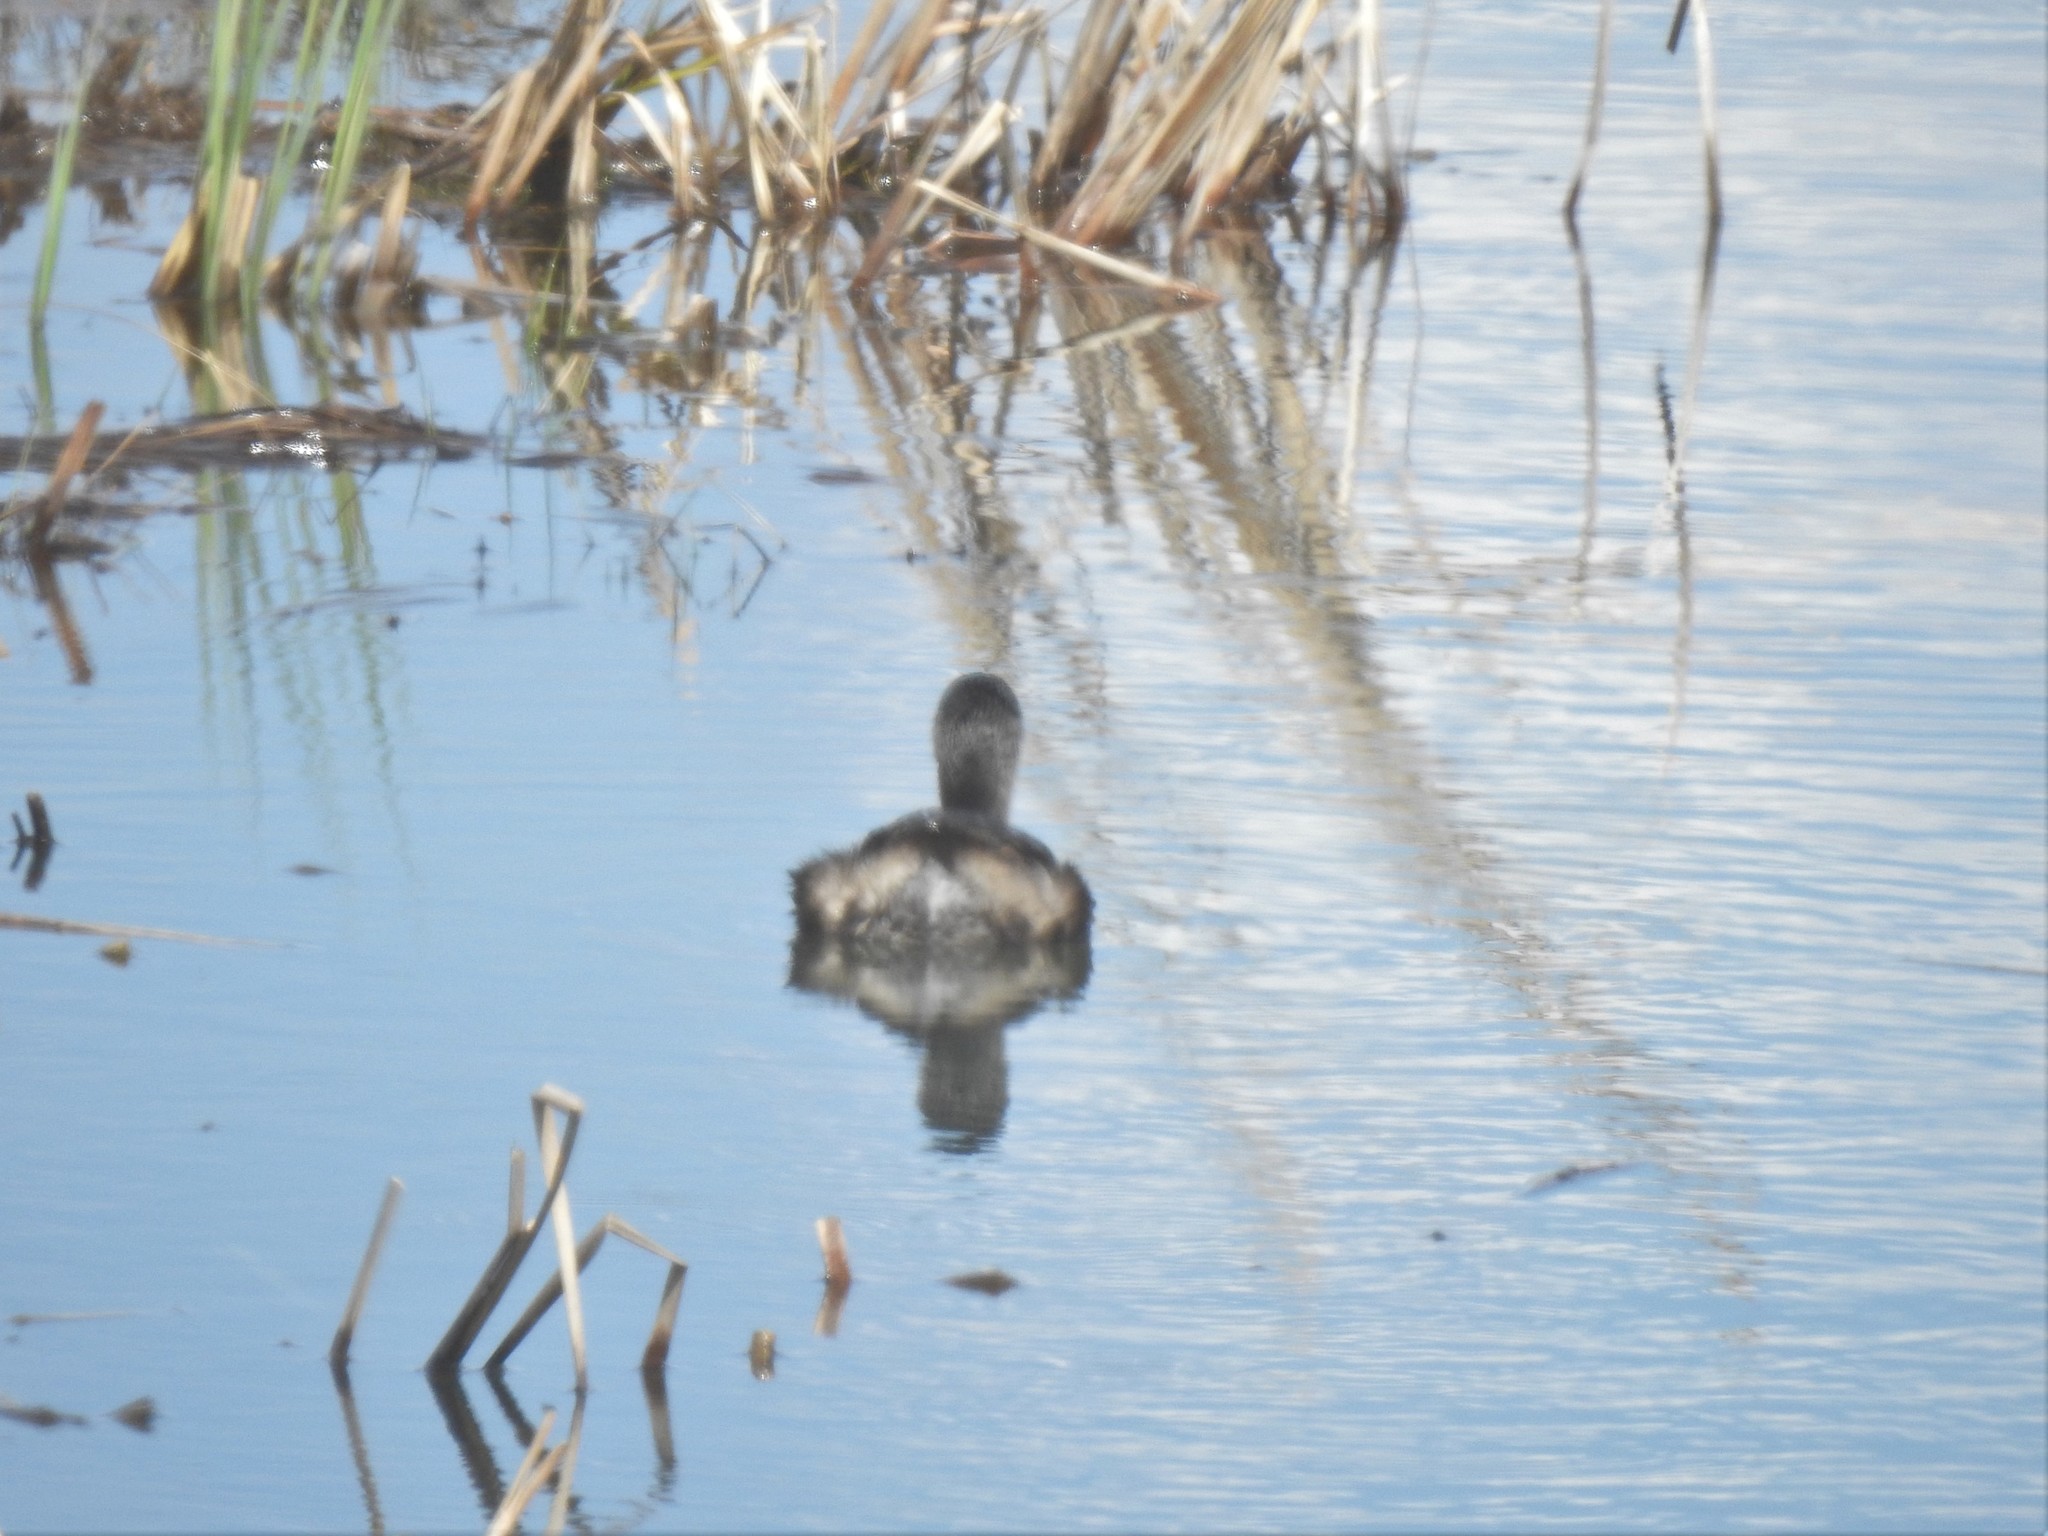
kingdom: Animalia
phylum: Chordata
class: Aves
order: Podicipediformes
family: Podicipedidae
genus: Podilymbus
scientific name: Podilymbus podiceps
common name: Pied-billed grebe
